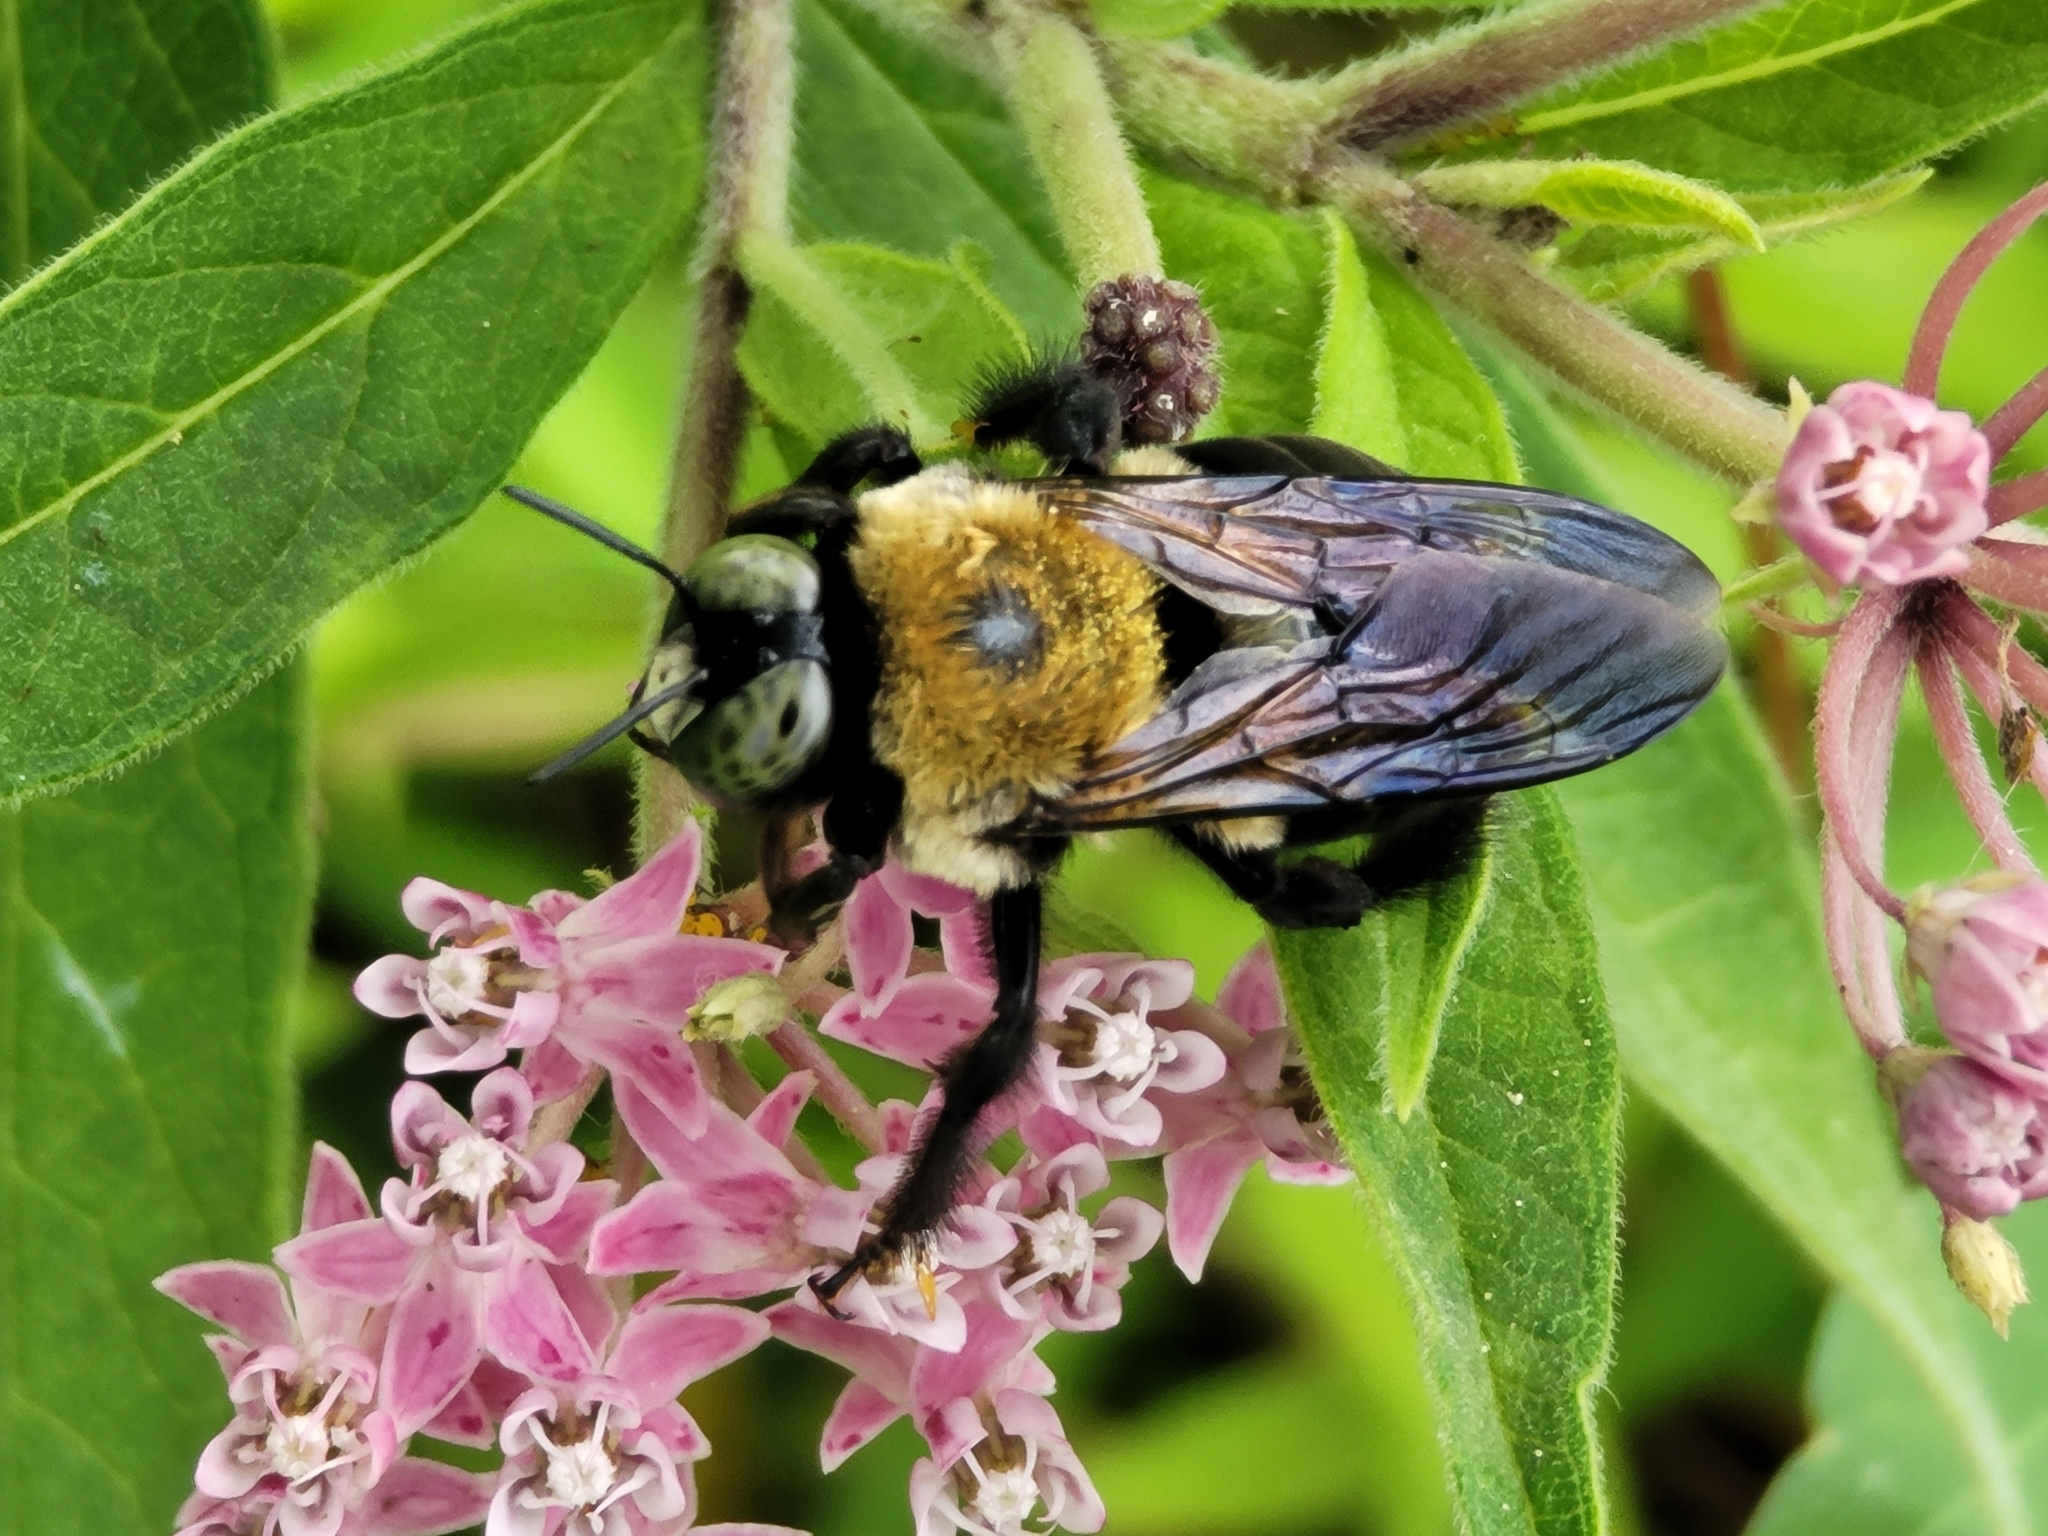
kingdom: Animalia
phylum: Arthropoda
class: Insecta
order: Hymenoptera
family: Apidae
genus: Xylocopa
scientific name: Xylocopa virginica
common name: Carpenter bee
